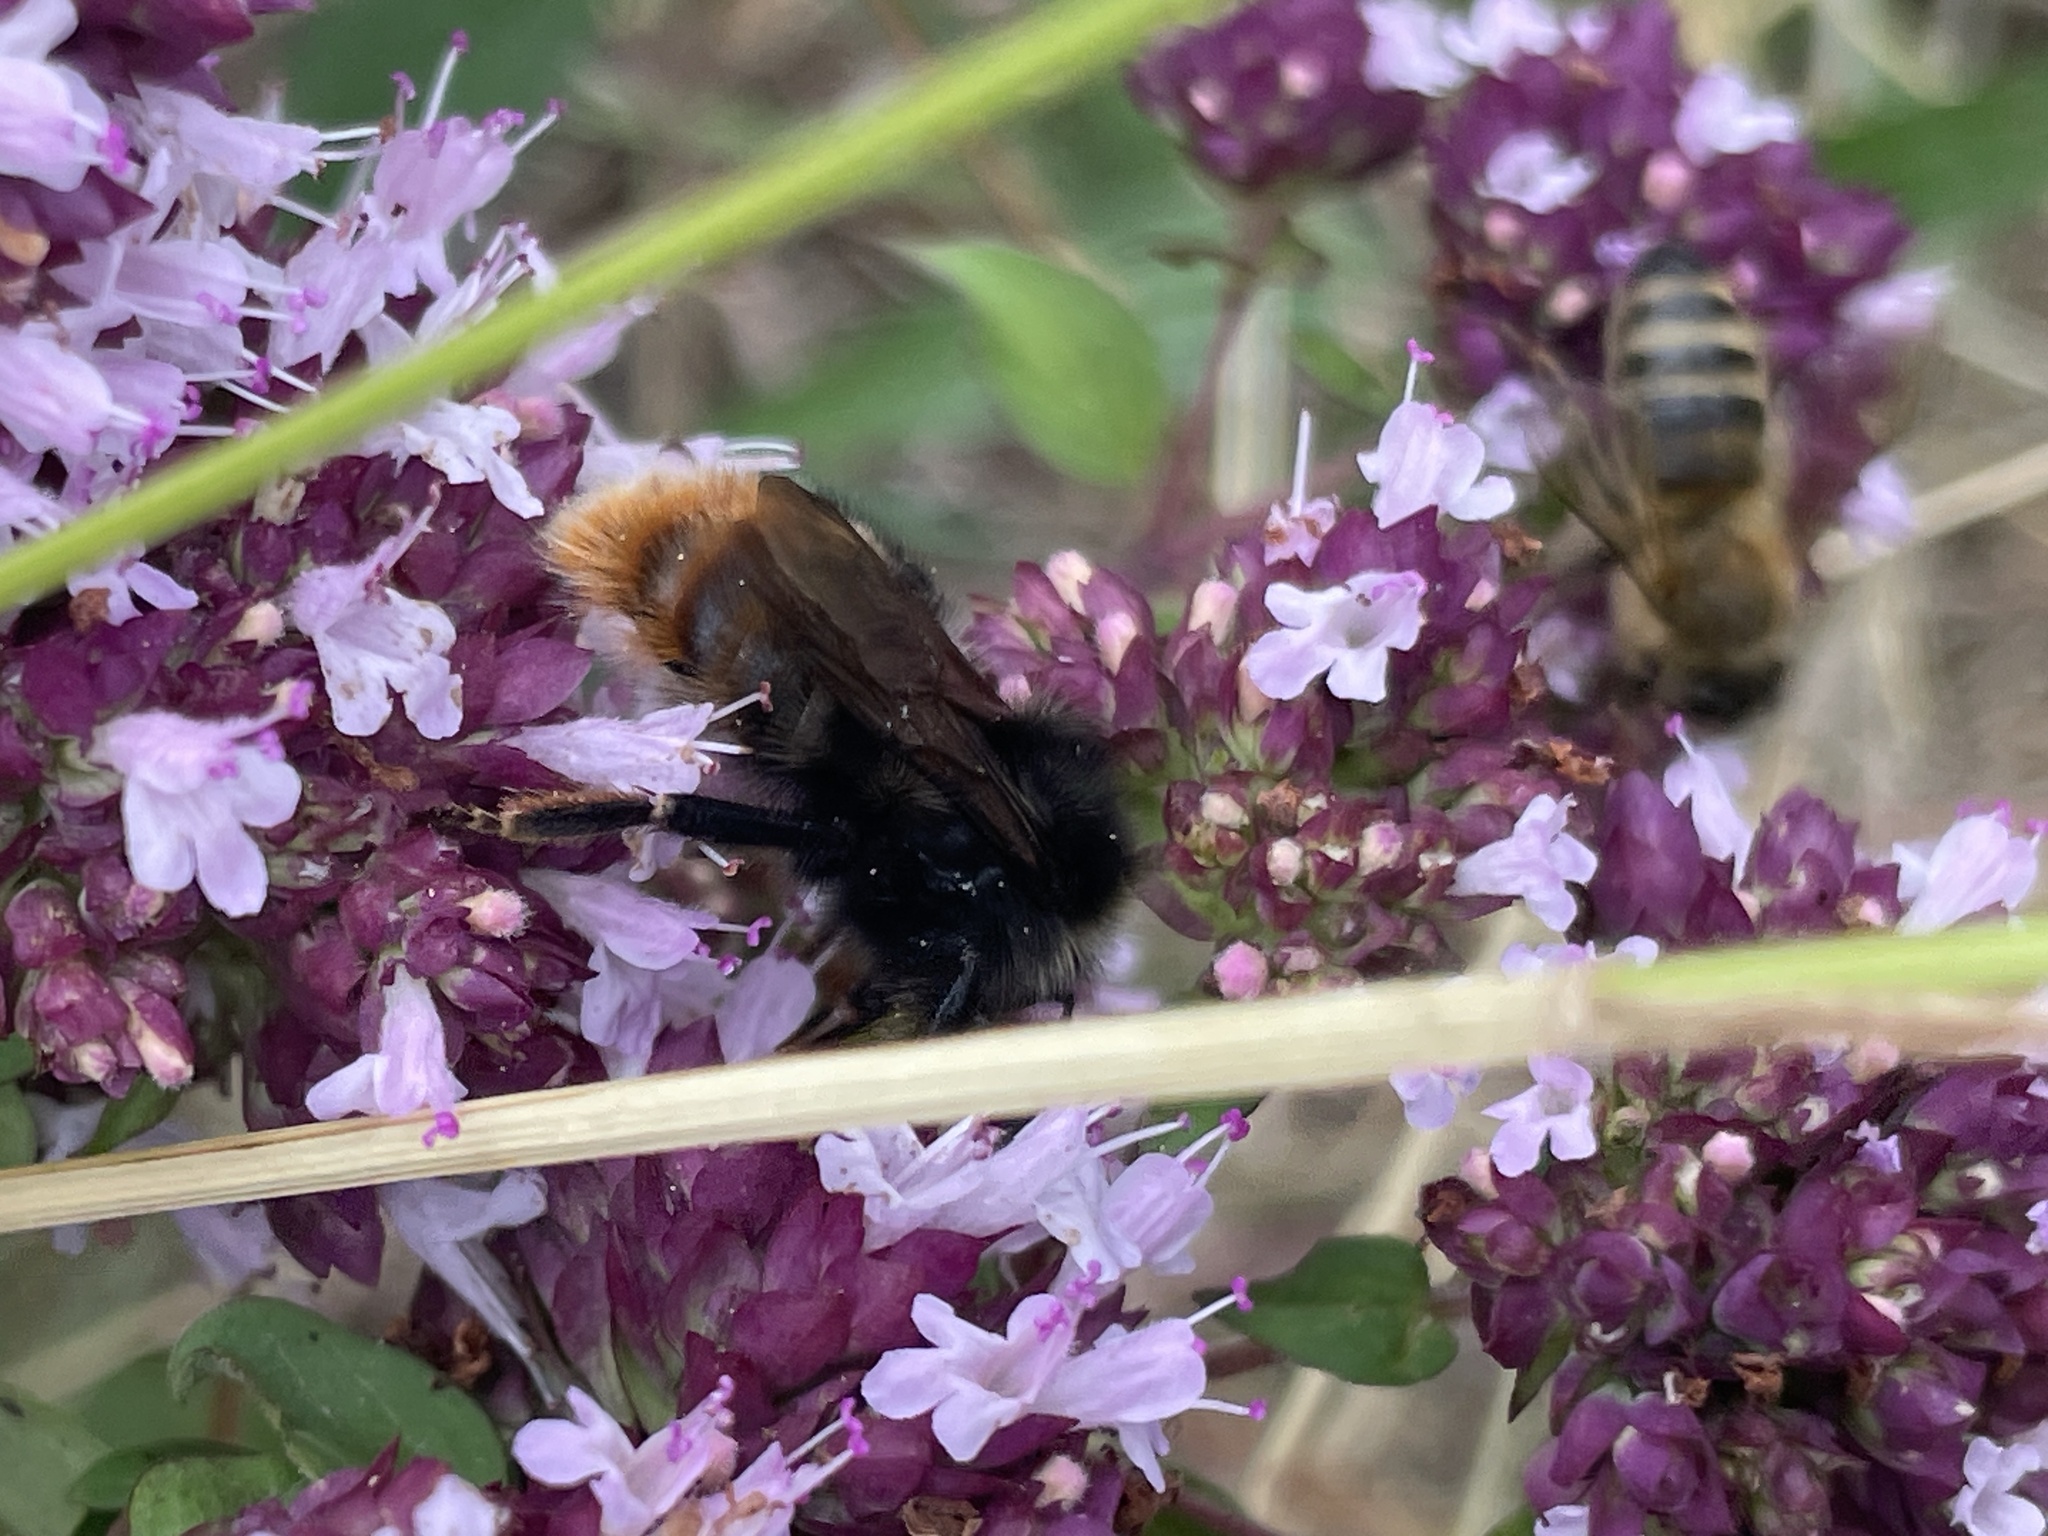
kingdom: Animalia
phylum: Arthropoda
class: Insecta
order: Hymenoptera
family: Apidae
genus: Bombus
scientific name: Bombus rupestris
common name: Hill cuckoo-bee
